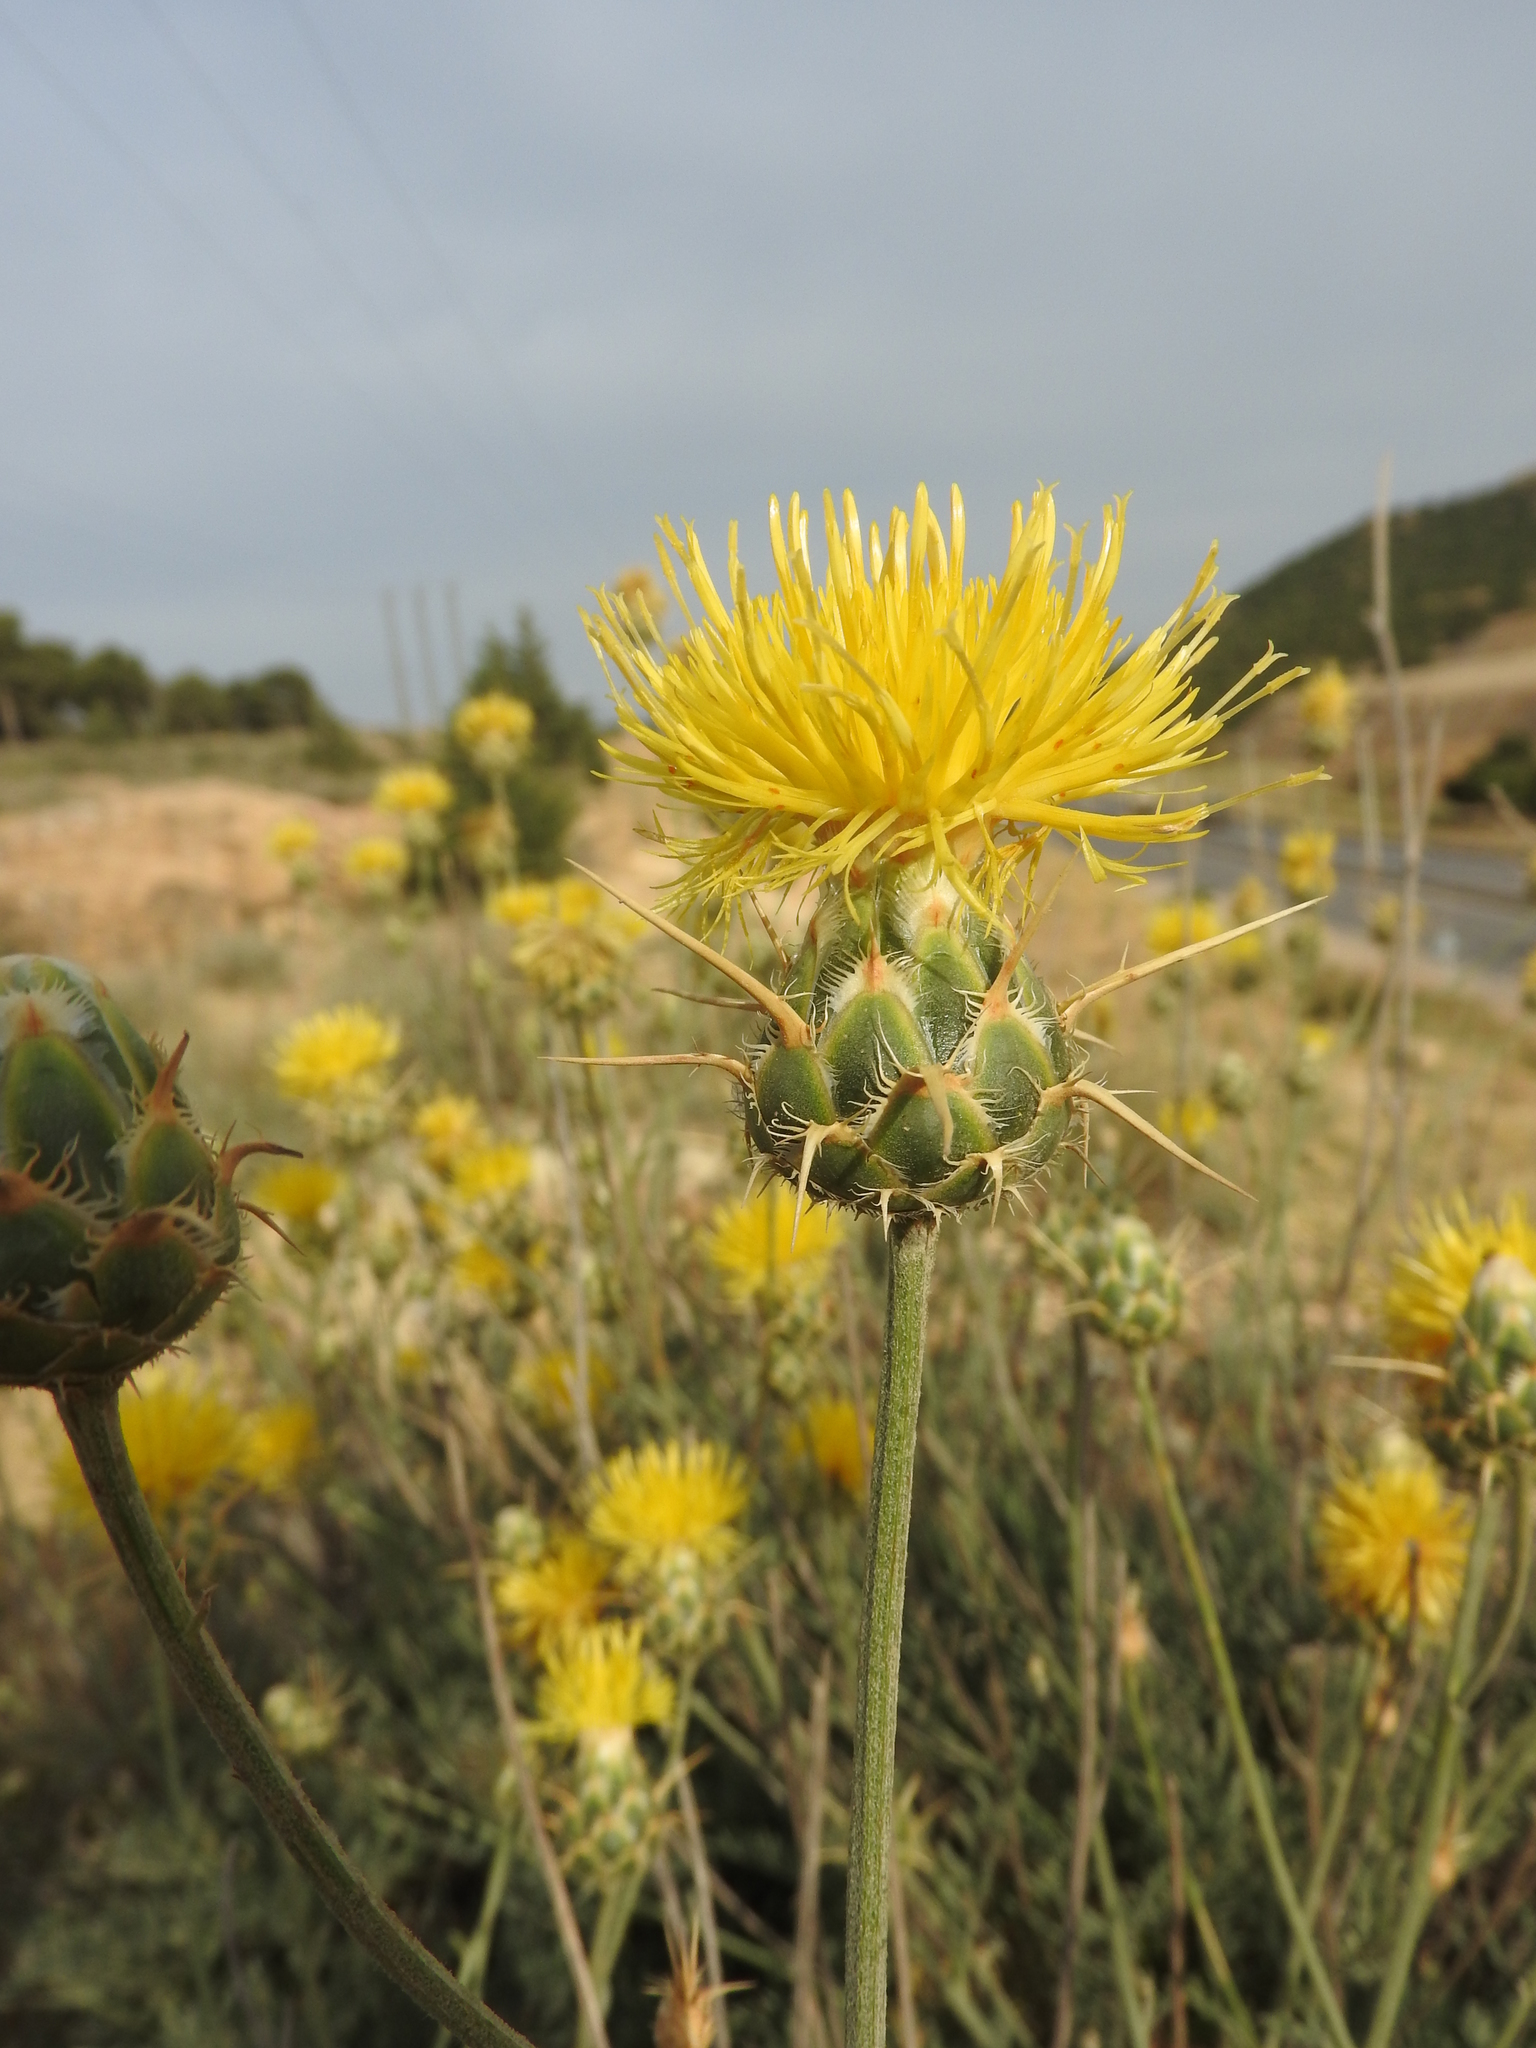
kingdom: Plantae
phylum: Tracheophyta
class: Magnoliopsida
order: Asterales
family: Asteraceae
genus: Centaurea
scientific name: Centaurea pubescens
